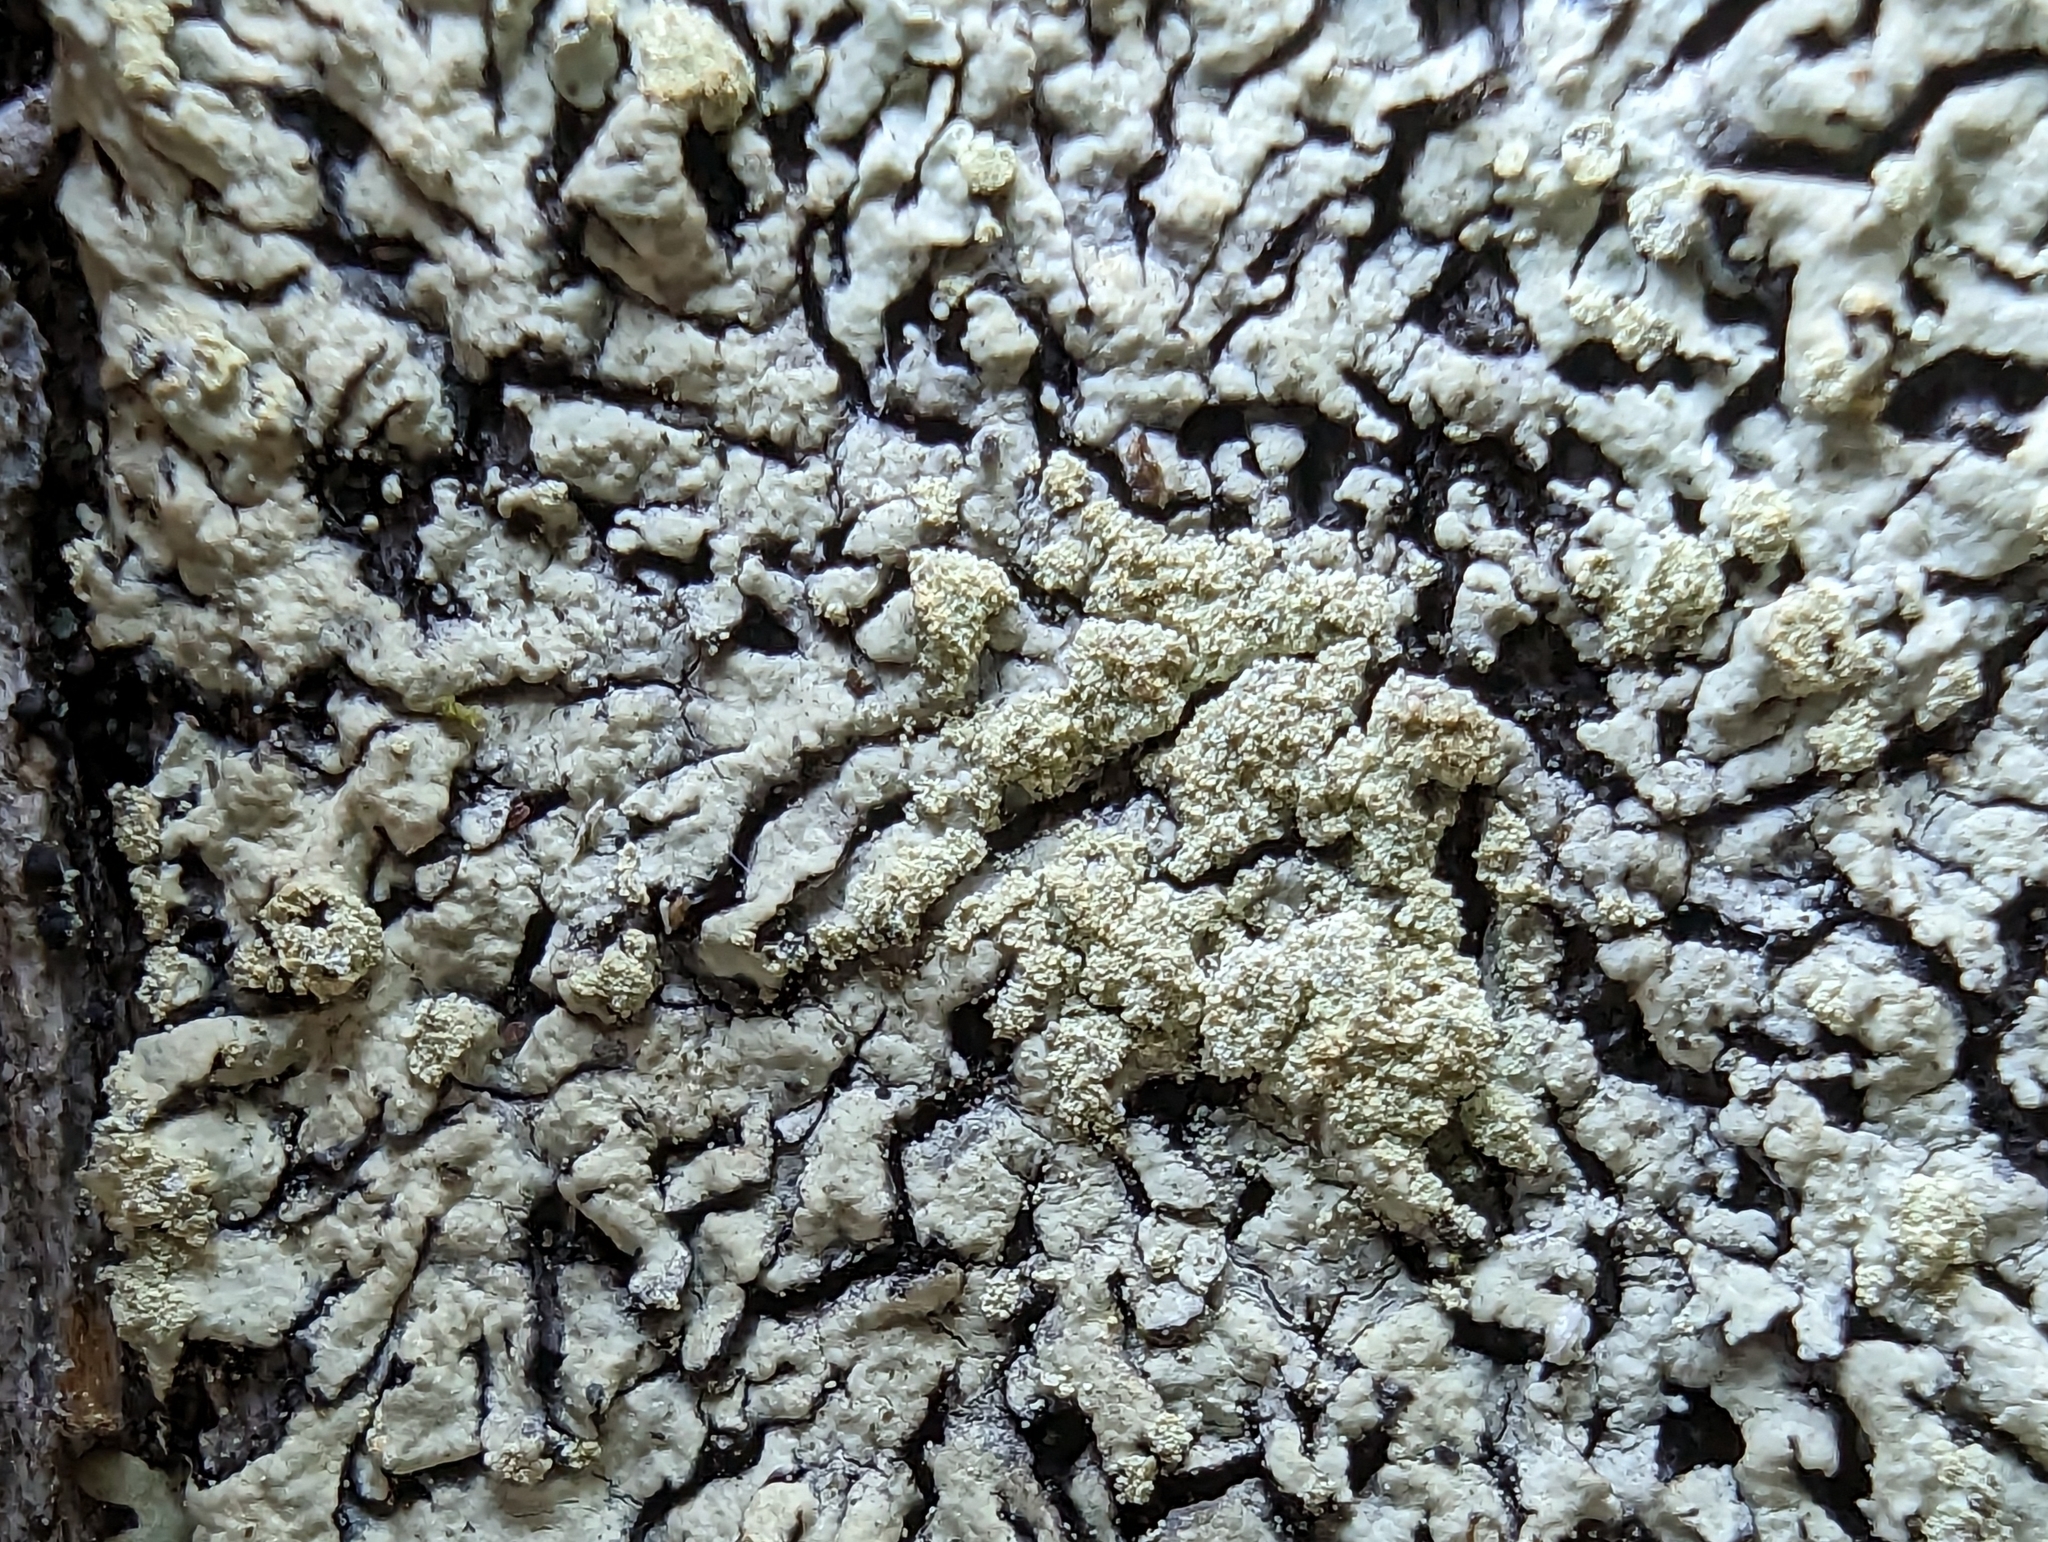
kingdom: Fungi
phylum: Ascomycota
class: Lecanoromycetes
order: Lecanorales
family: Parmeliaceae
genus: Parmeliopsis
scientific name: Parmeliopsis ambigua
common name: Green starburst lichen
